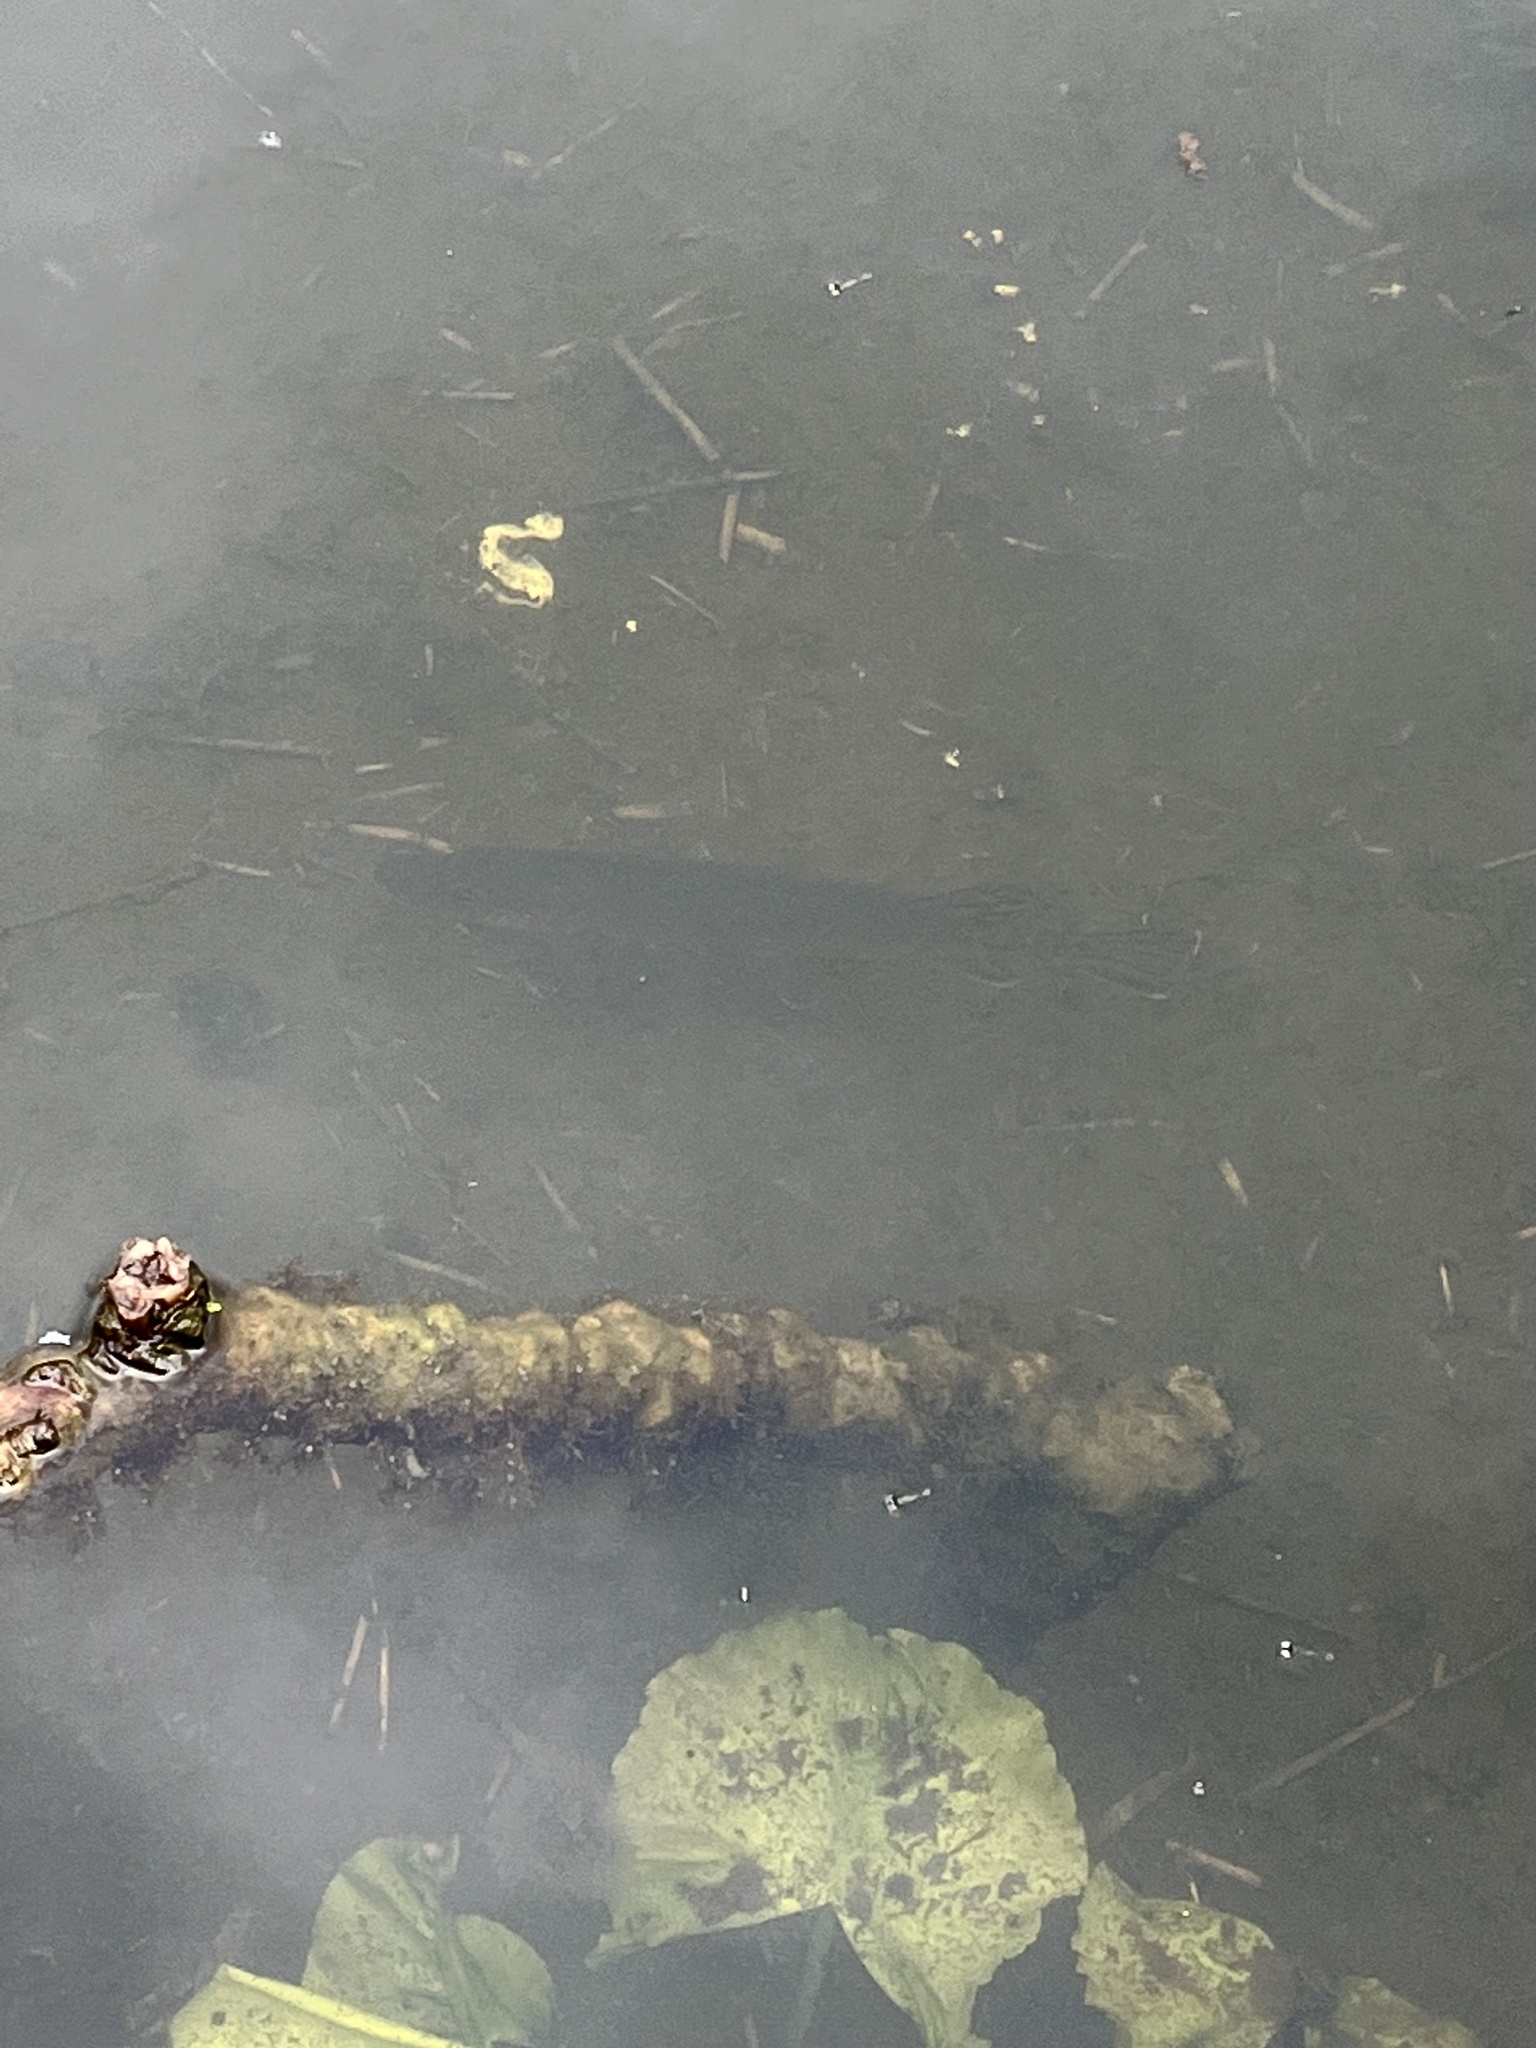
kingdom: Animalia
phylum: Chordata
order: Esociformes
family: Esocidae
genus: Esox
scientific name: Esox lucius
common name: Northern pike
